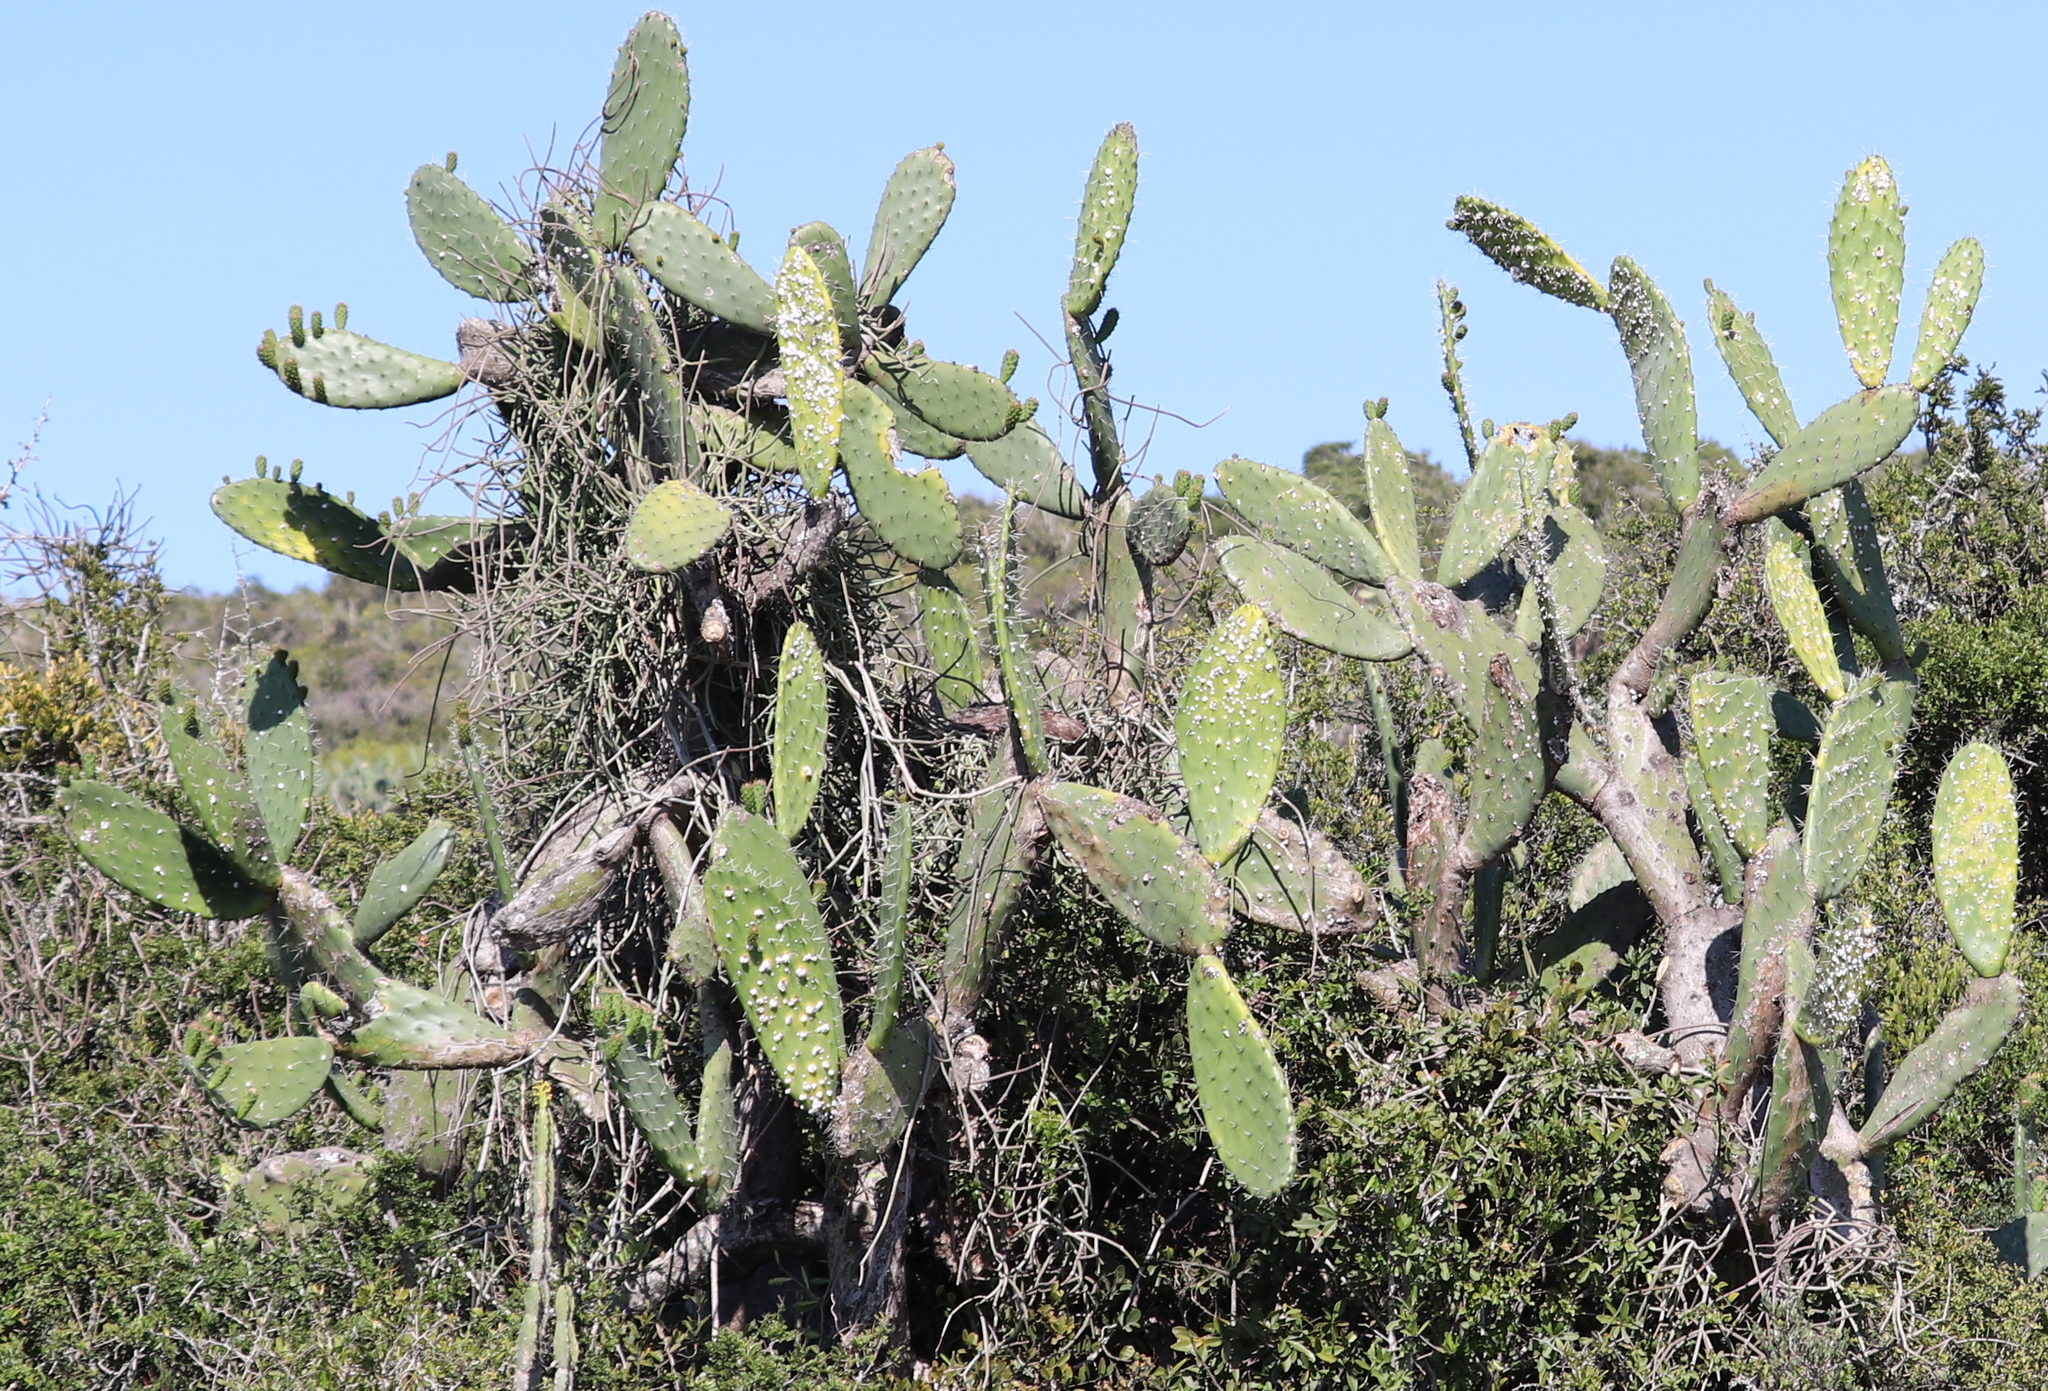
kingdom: Plantae
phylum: Tracheophyta
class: Magnoliopsida
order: Caryophyllales
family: Cactaceae
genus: Opuntia
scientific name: Opuntia ficus-indica
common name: Barbary fig
